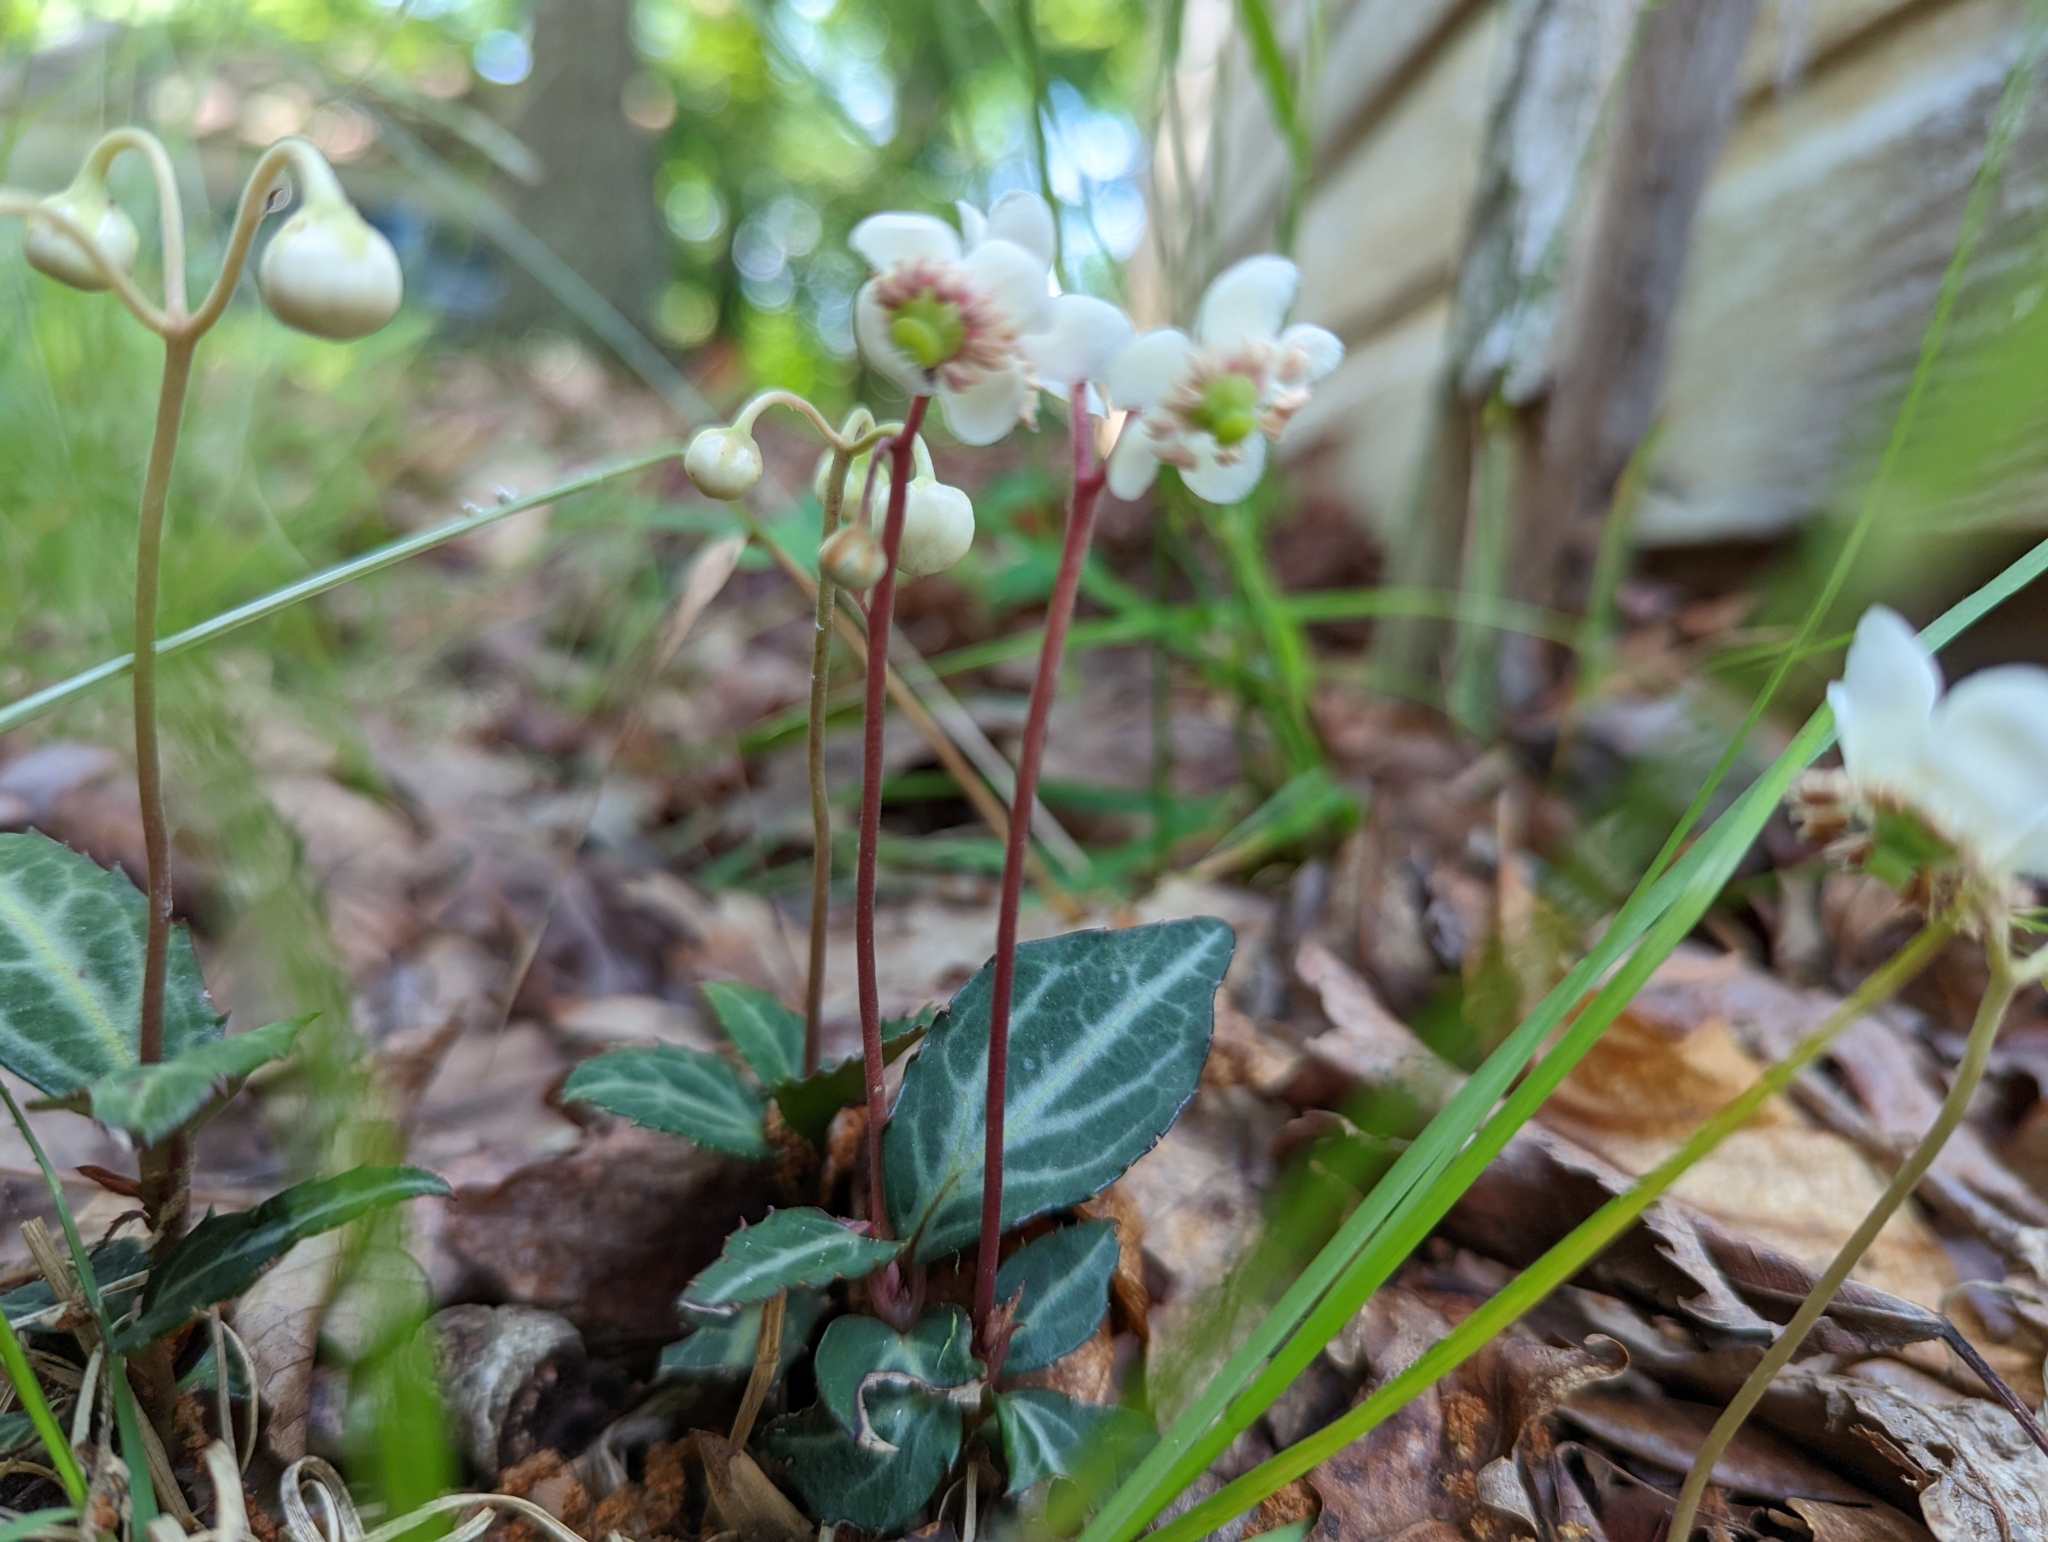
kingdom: Plantae
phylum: Tracheophyta
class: Magnoliopsida
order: Ericales
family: Ericaceae
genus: Chimaphila
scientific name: Chimaphila maculata
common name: Spotted pipsissewa
